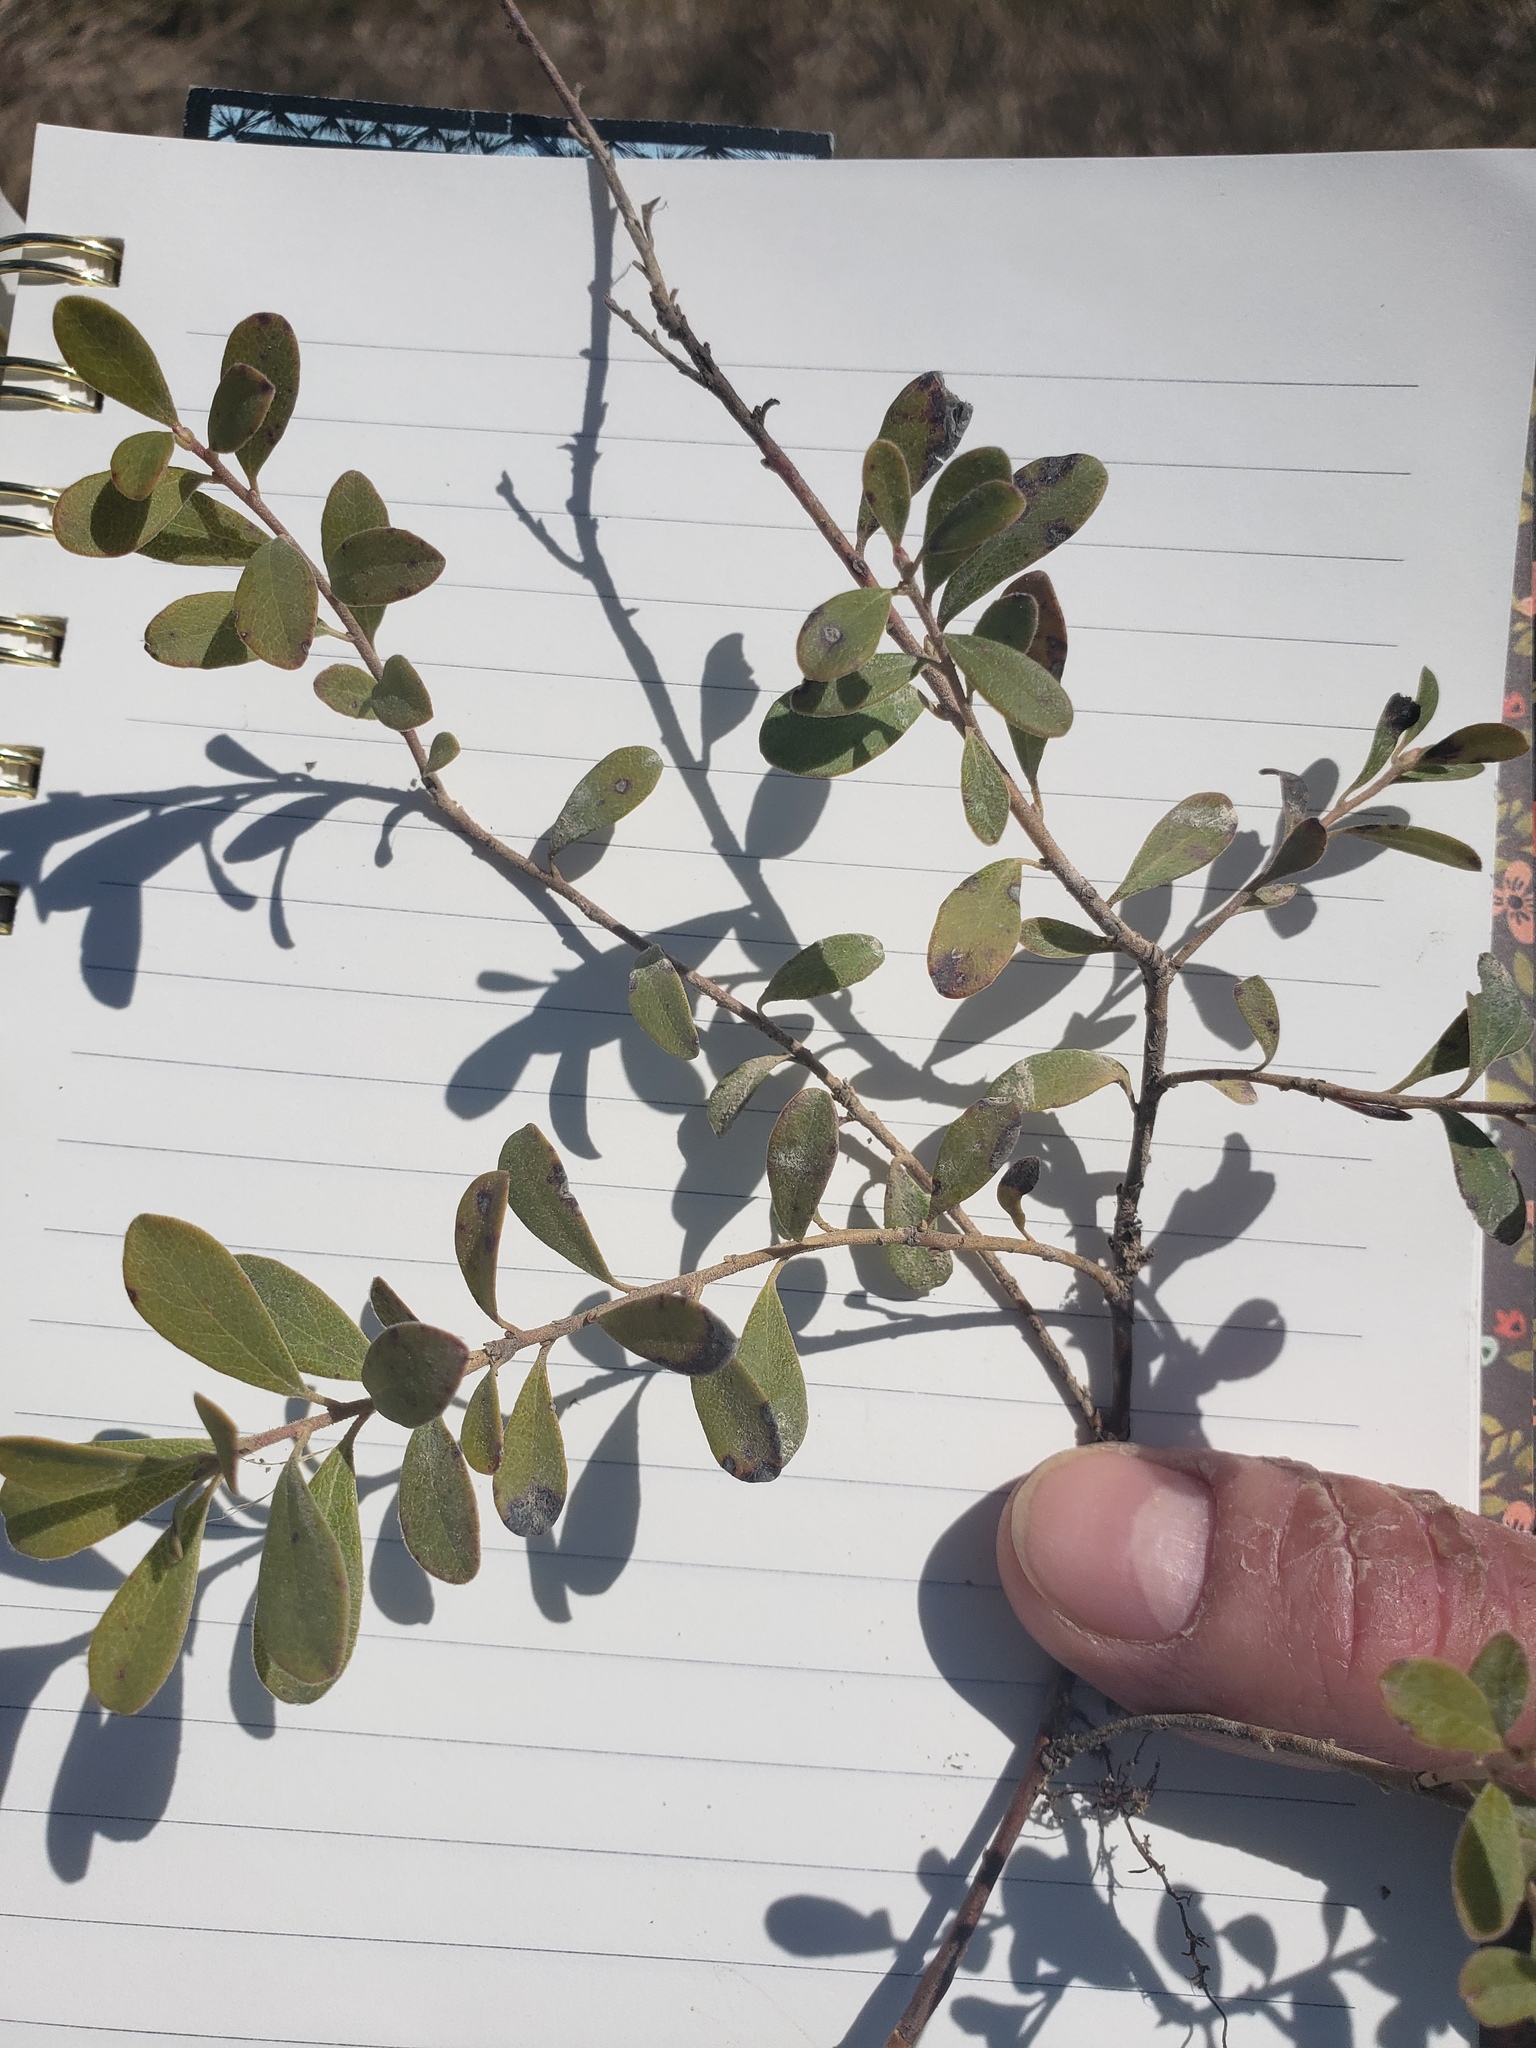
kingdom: Plantae
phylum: Tracheophyta
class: Magnoliopsida
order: Ericales
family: Ericaceae
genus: Arctostaphylos
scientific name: Arctostaphylos uva-ursi
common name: Bearberry
